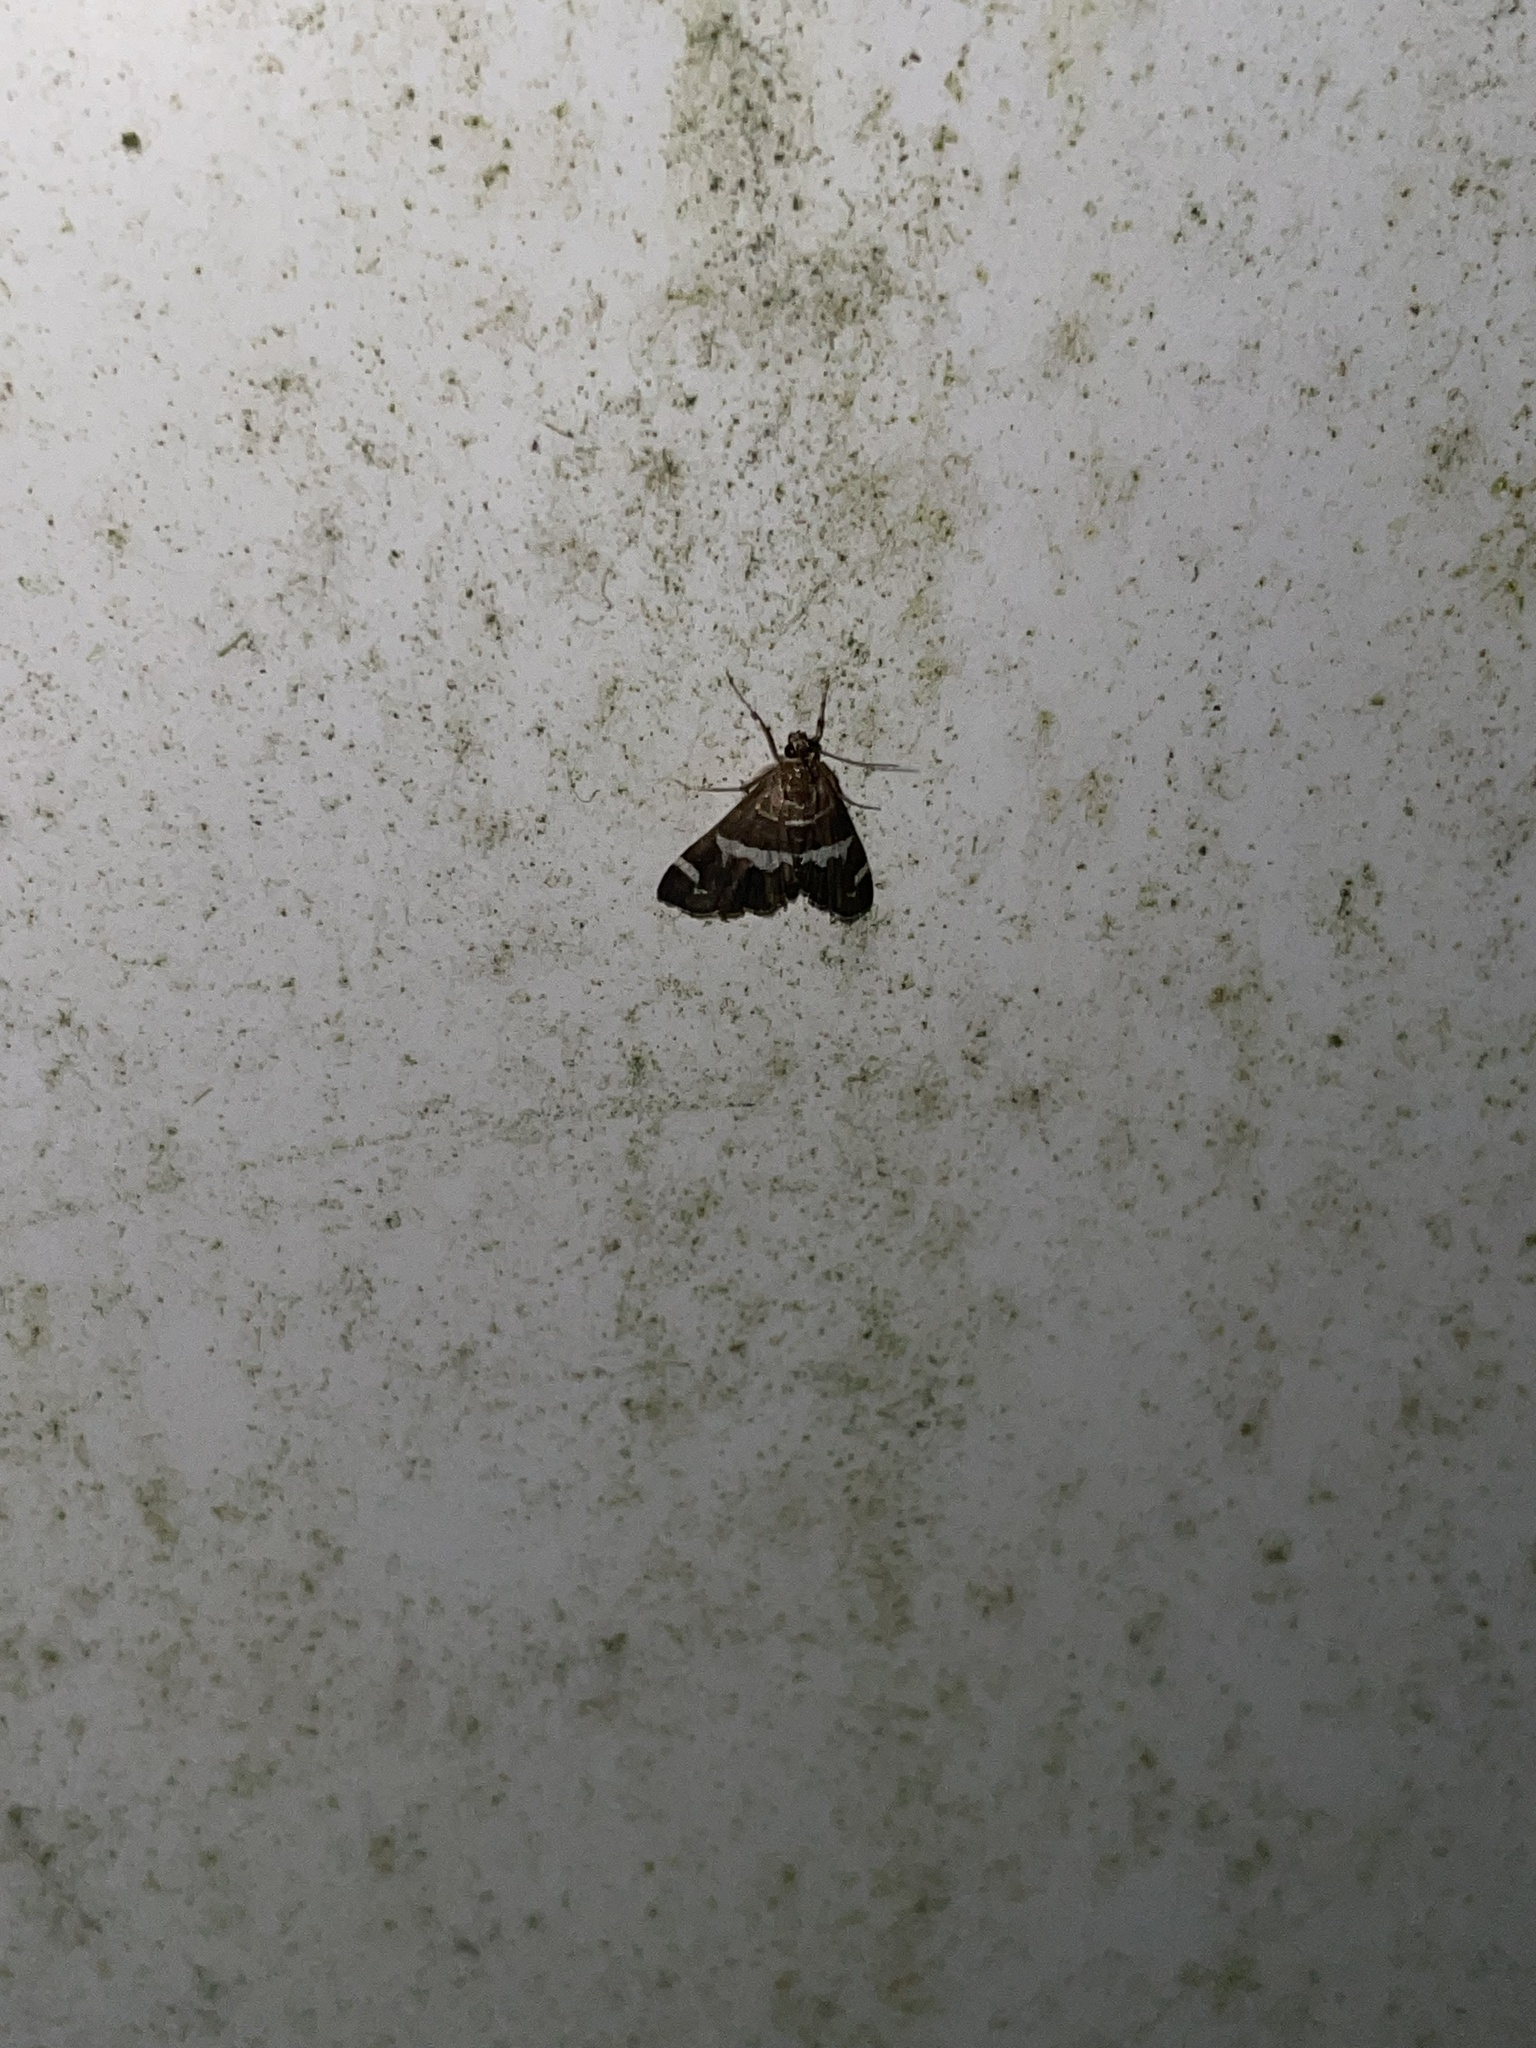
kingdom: Animalia
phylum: Arthropoda
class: Insecta
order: Lepidoptera
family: Crambidae
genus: Spoladea
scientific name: Spoladea recurvalis
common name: Beet webworm moth
